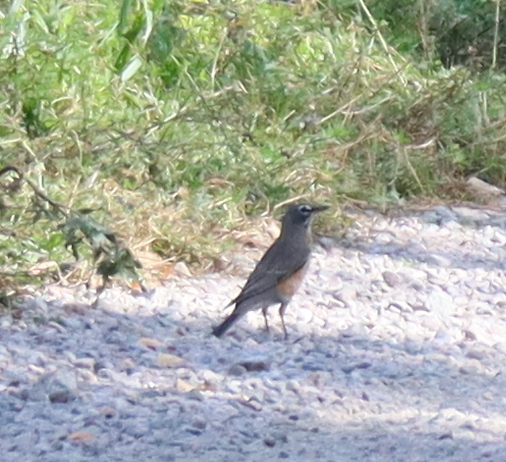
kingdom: Animalia
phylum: Chordata
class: Aves
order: Passeriformes
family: Turdidae
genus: Turdus
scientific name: Turdus migratorius
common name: American robin
